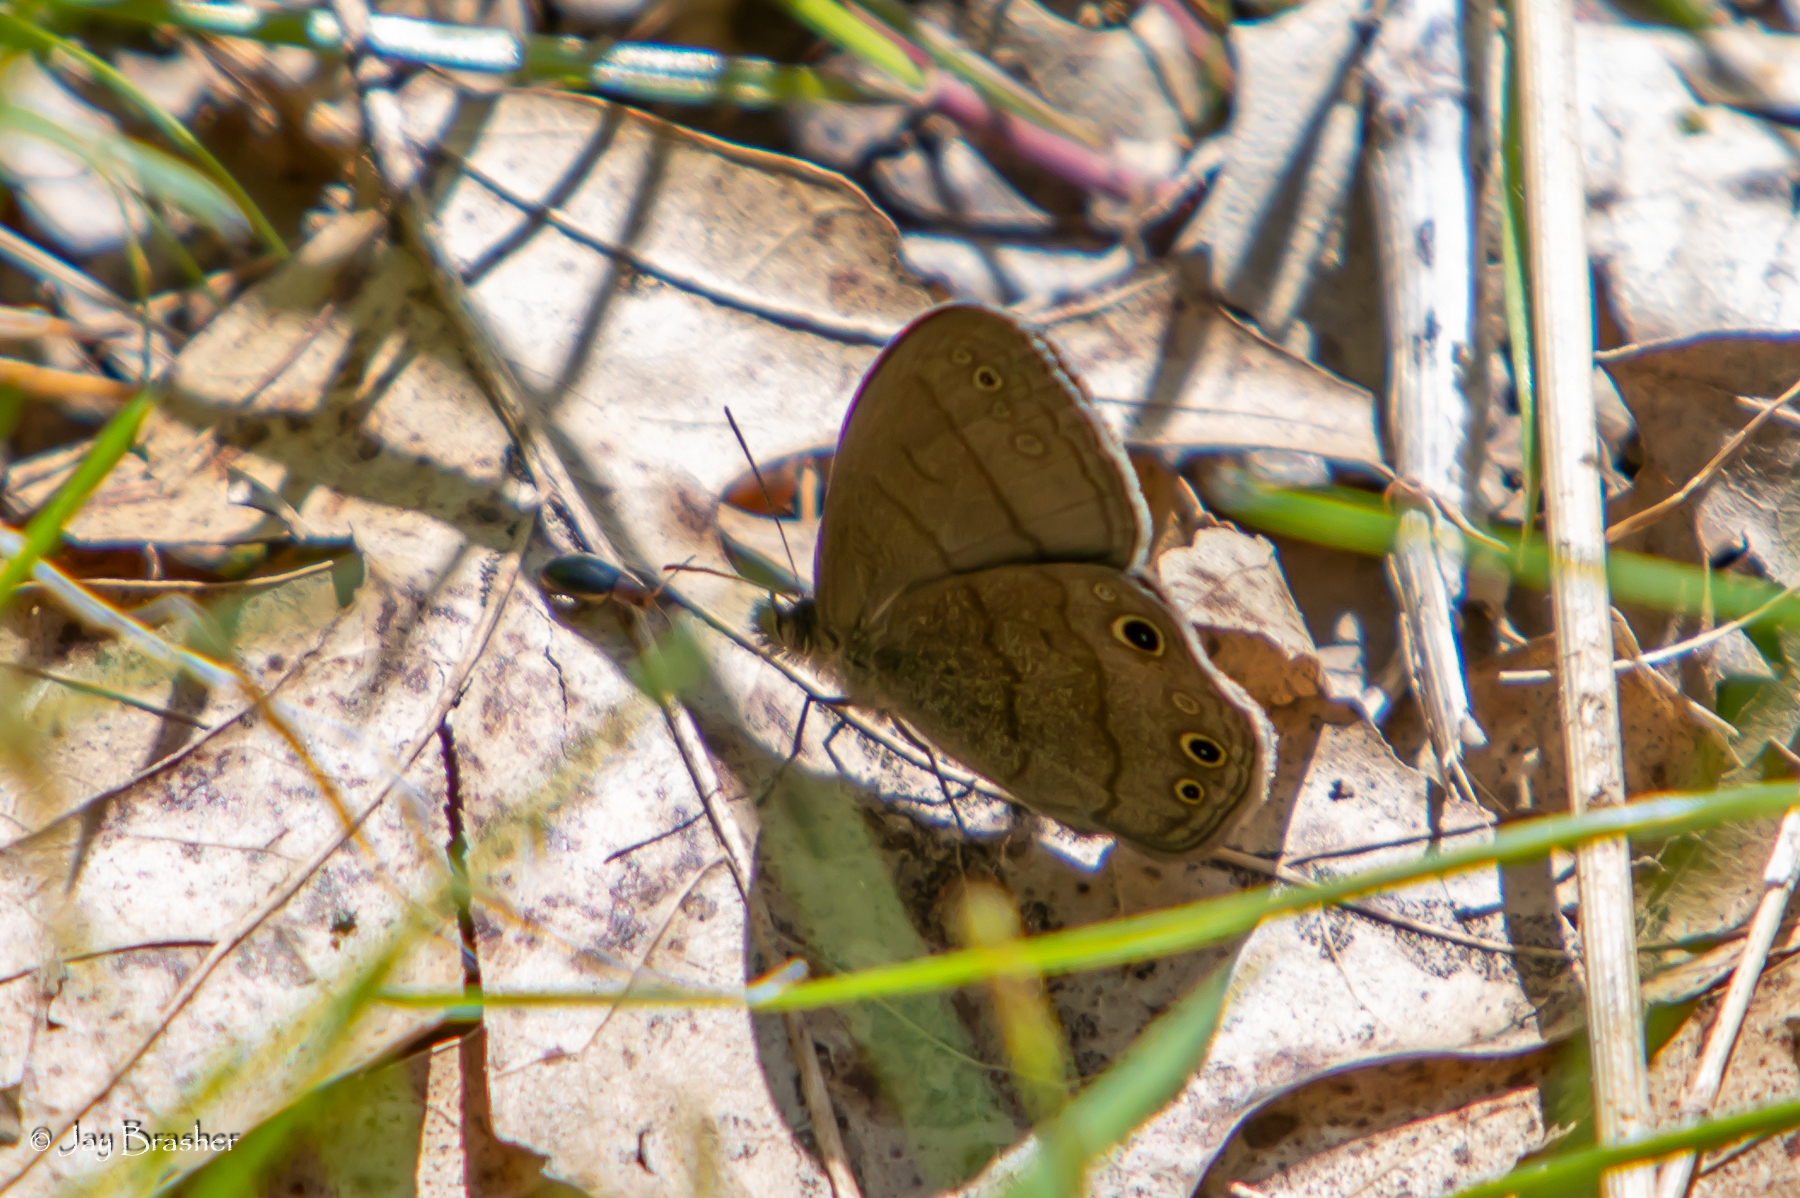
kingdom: Animalia
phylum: Arthropoda
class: Insecta
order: Lepidoptera
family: Nymphalidae
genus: Hermeuptychia
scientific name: Hermeuptychia hermes
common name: Hermes satyr
